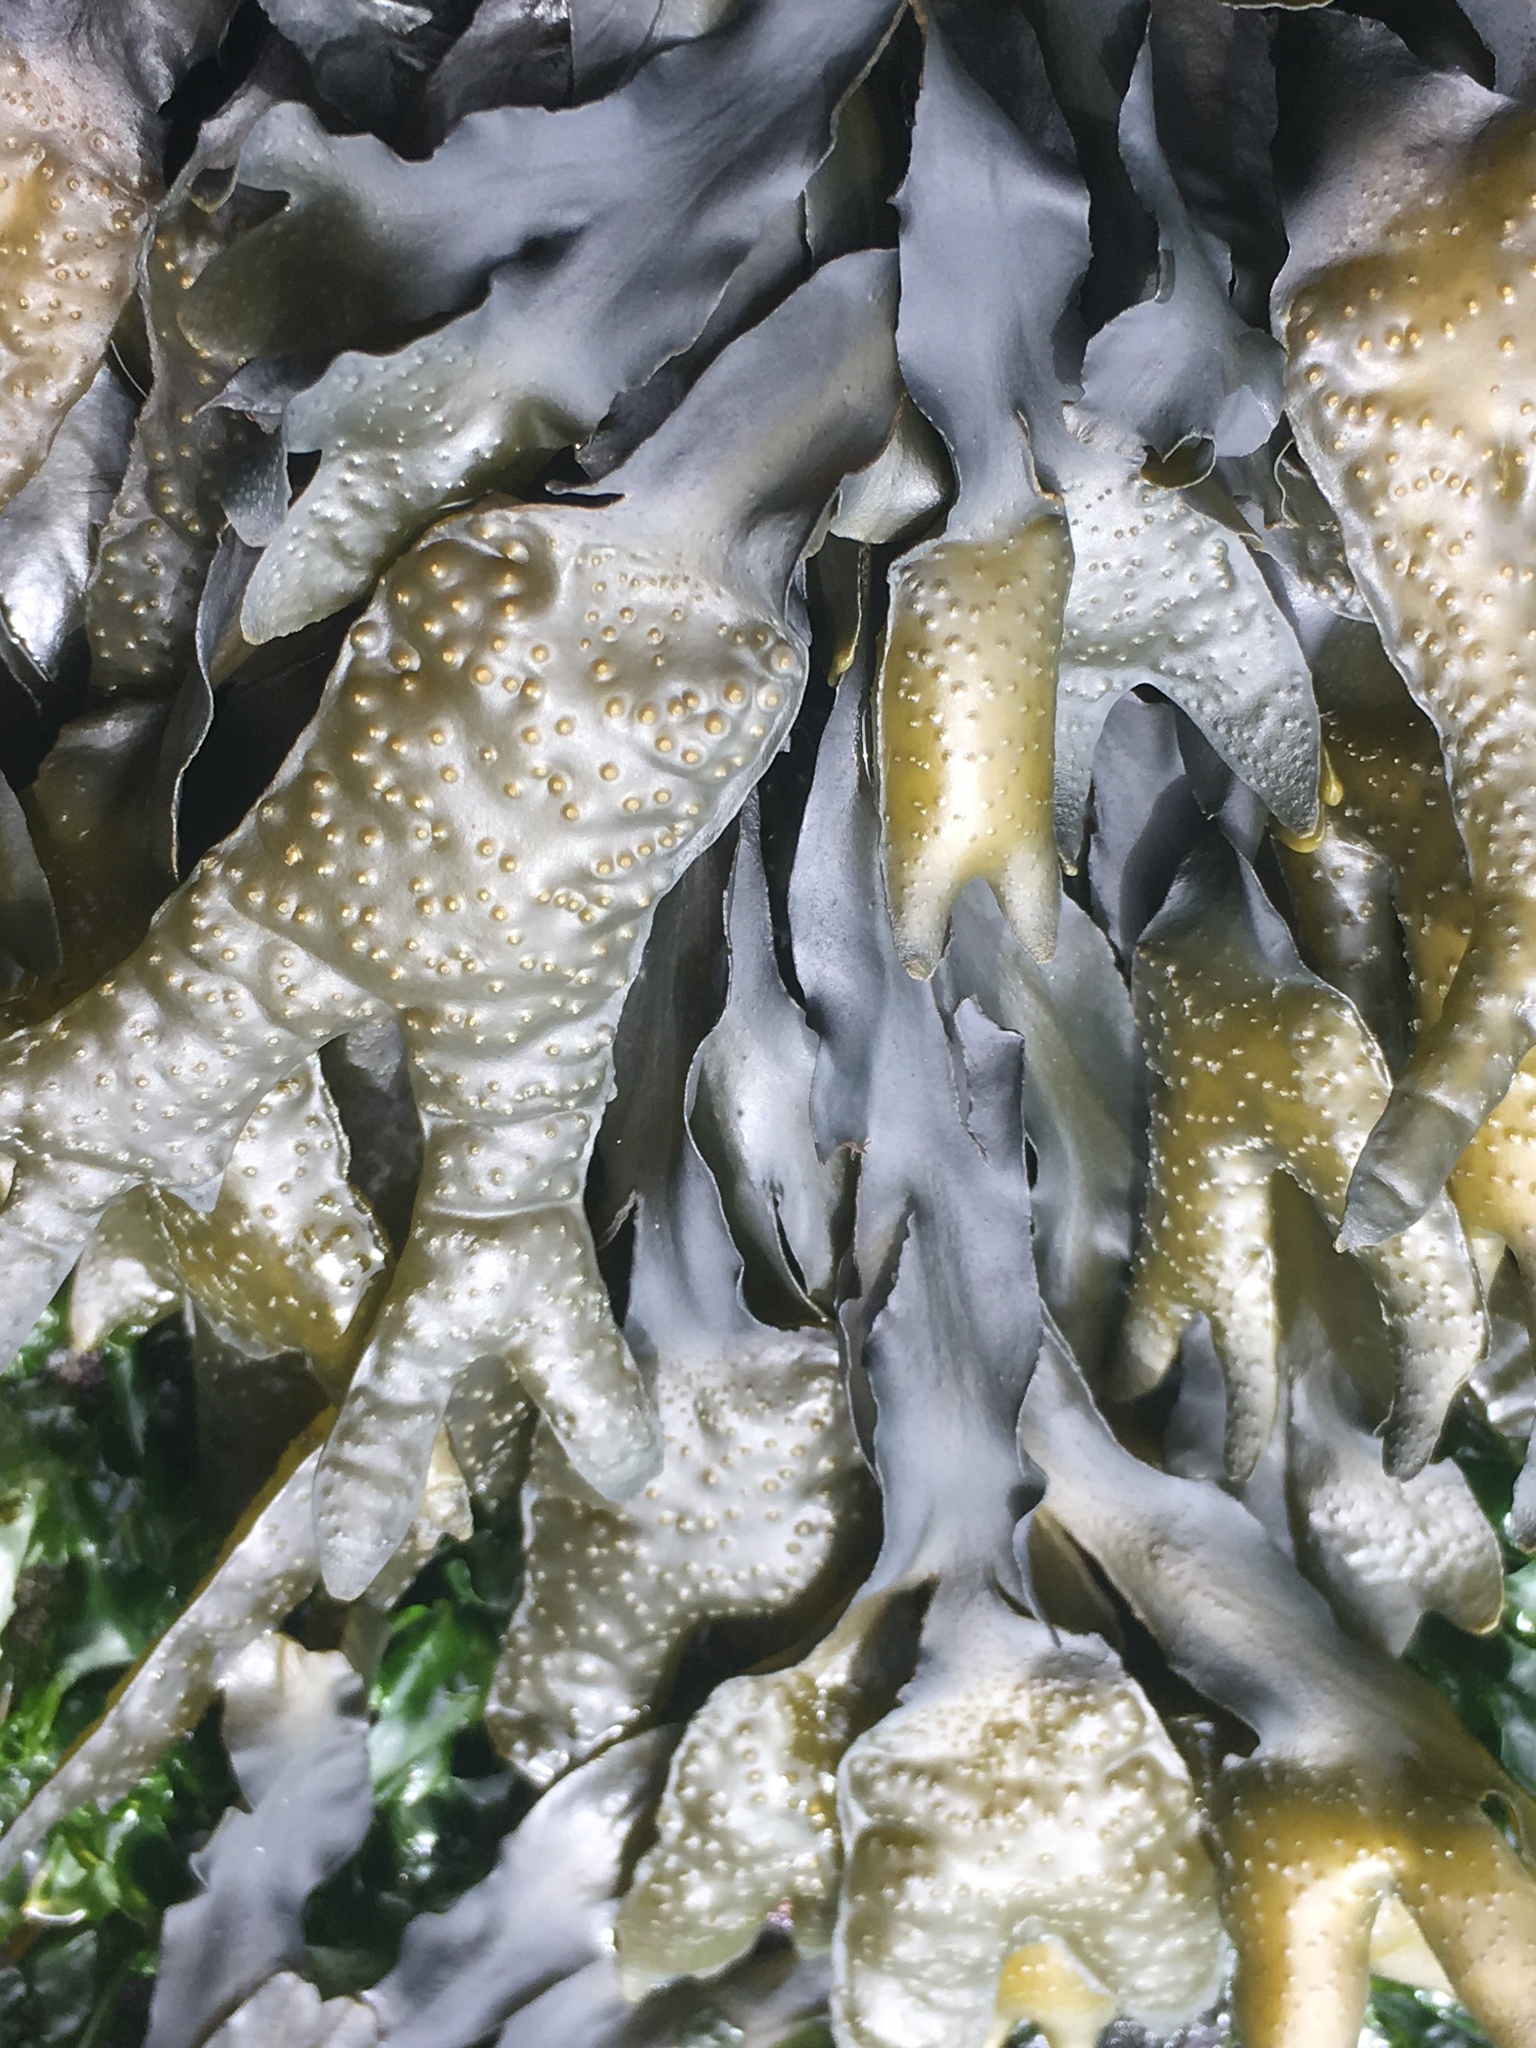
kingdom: Chromista
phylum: Ochrophyta
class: Phaeophyceae
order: Fucales
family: Fucaceae
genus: Fucus
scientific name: Fucus distichus
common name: Rockweed
